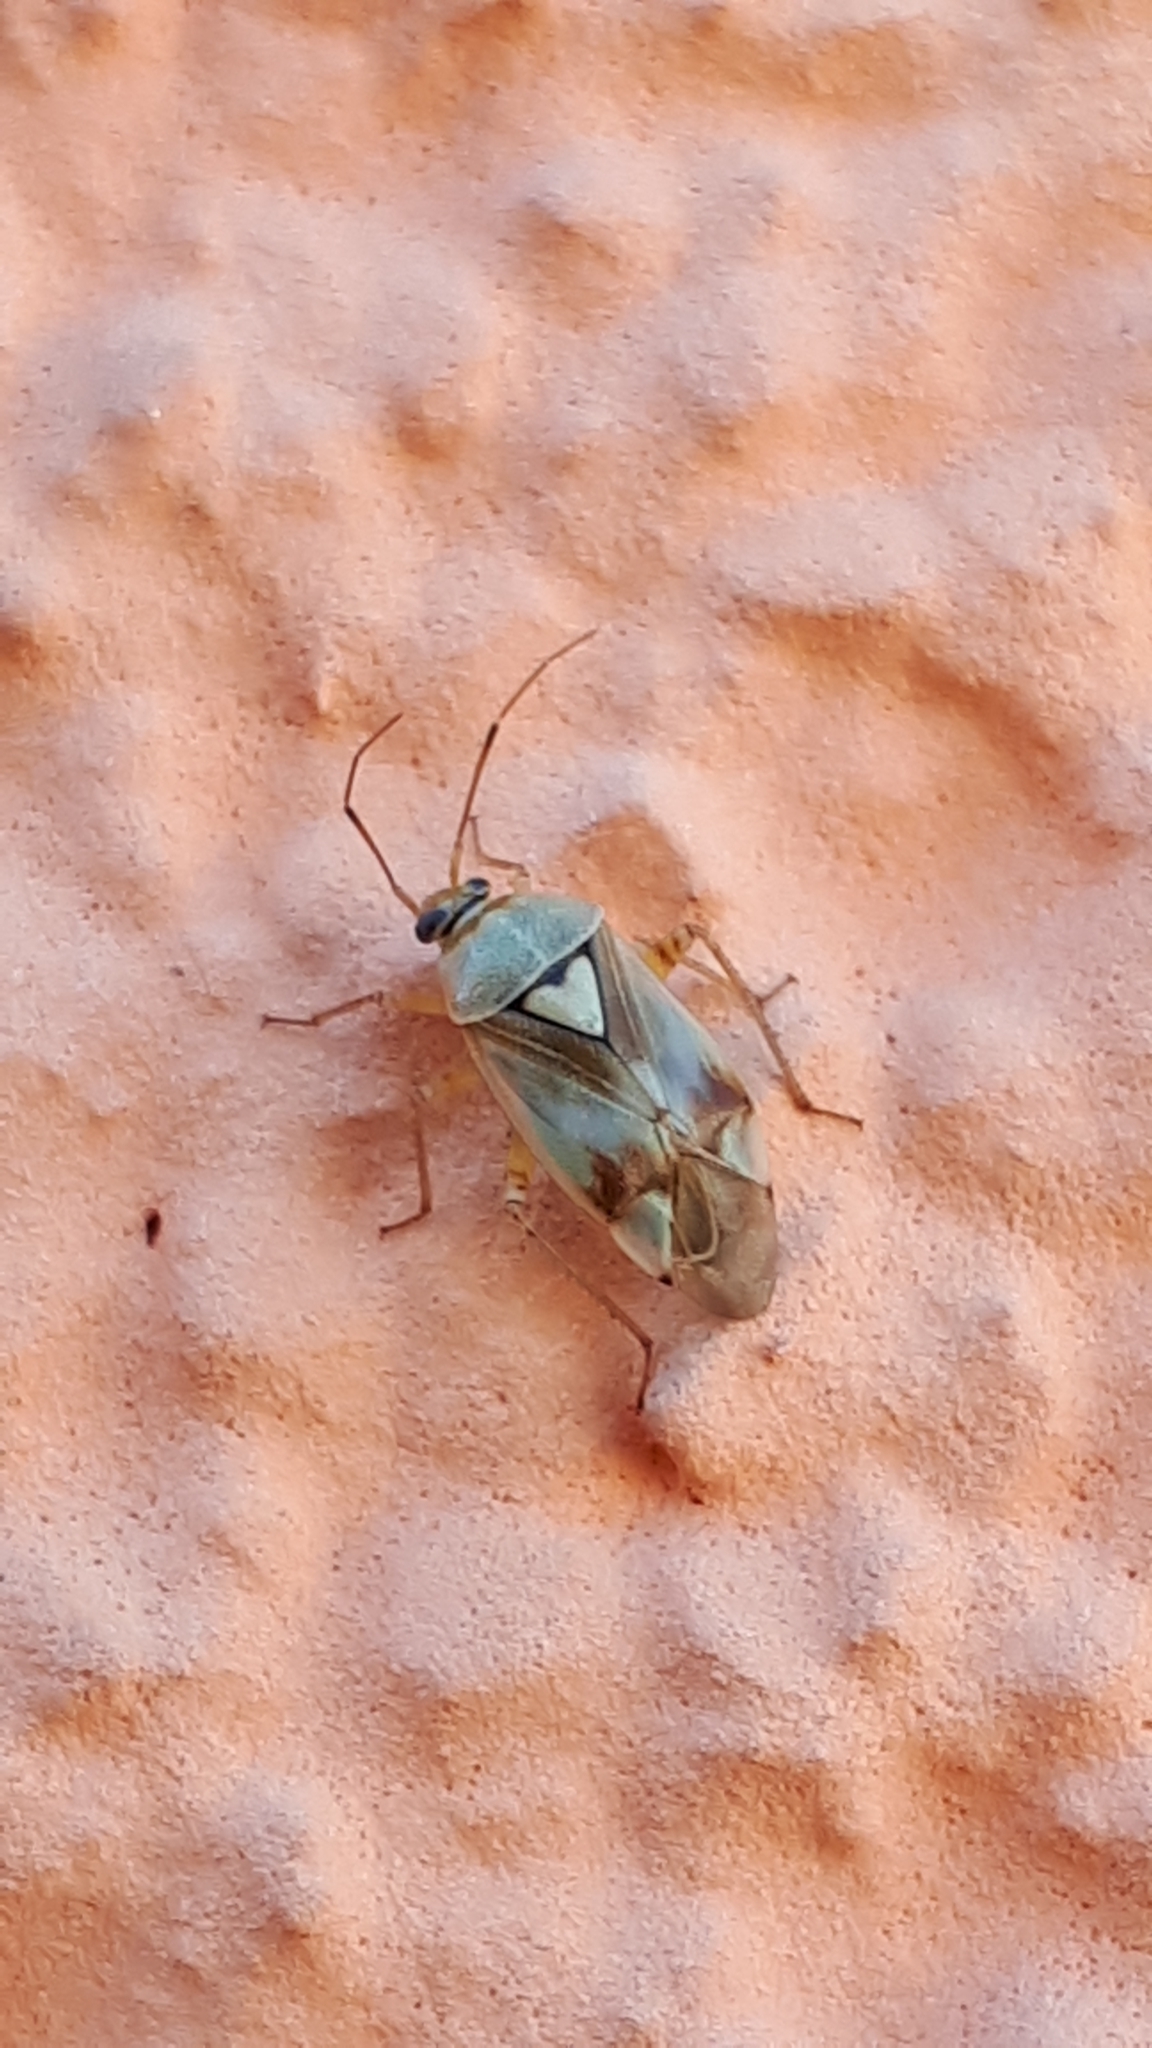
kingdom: Animalia
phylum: Arthropoda
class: Insecta
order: Hemiptera
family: Miridae
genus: Lygus
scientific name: Lygus pratensis
